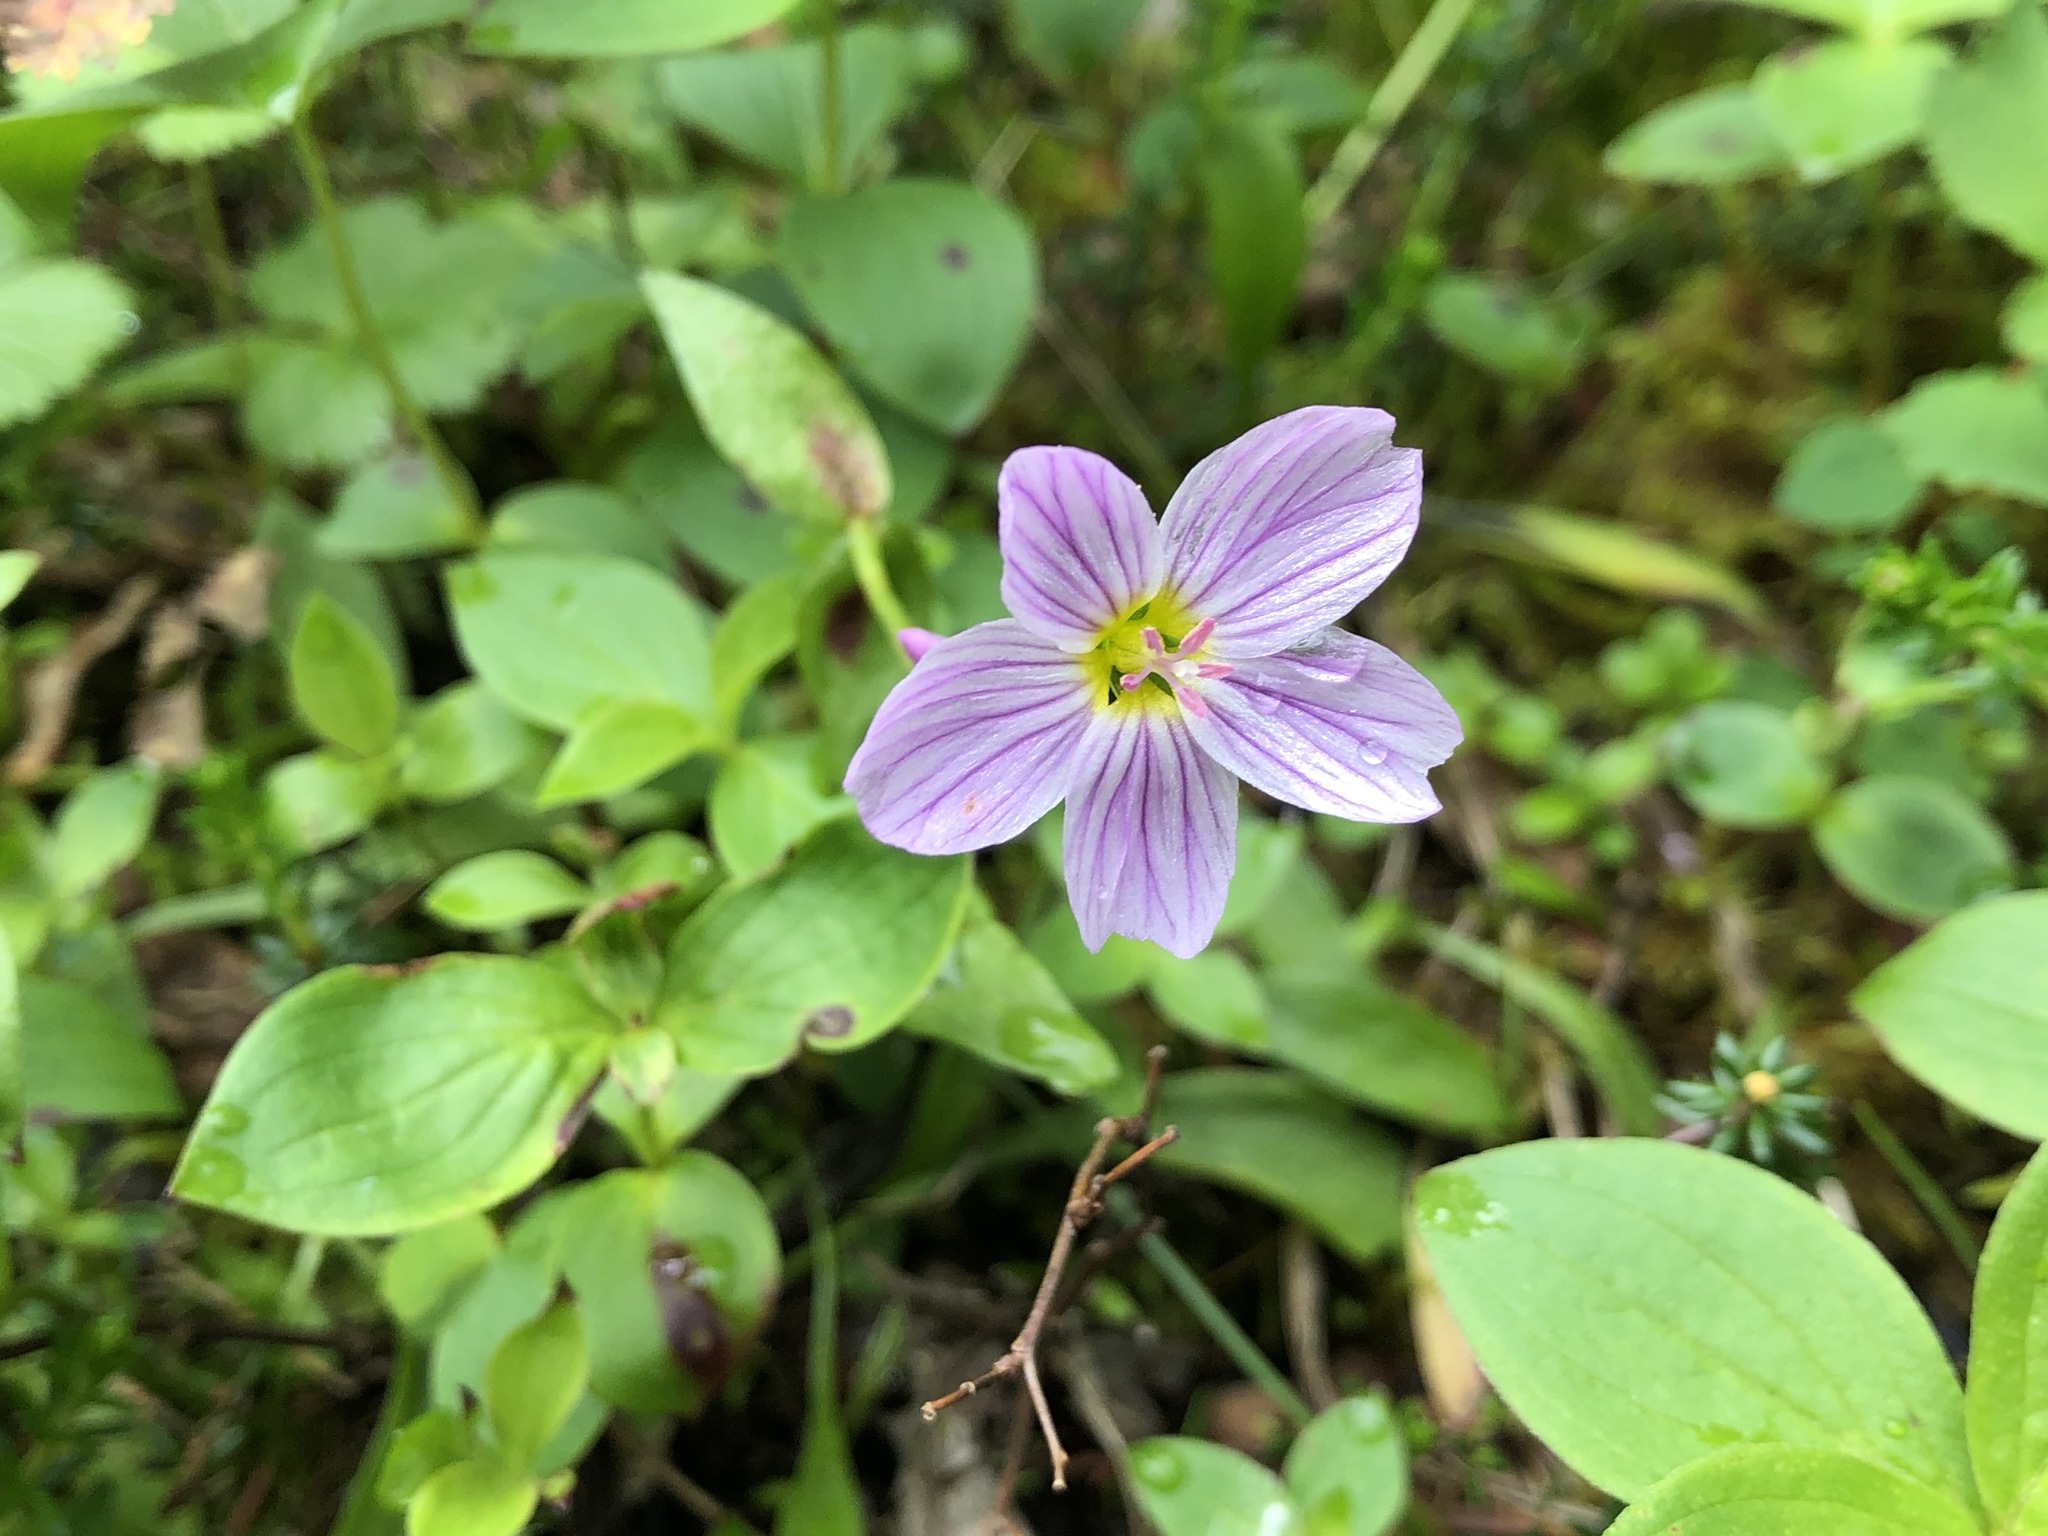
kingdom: Plantae
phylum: Tracheophyta
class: Magnoliopsida
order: Caryophyllales
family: Montiaceae
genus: Claytonia
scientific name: Claytonia sarmentosa
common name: Alaska spring beauty
